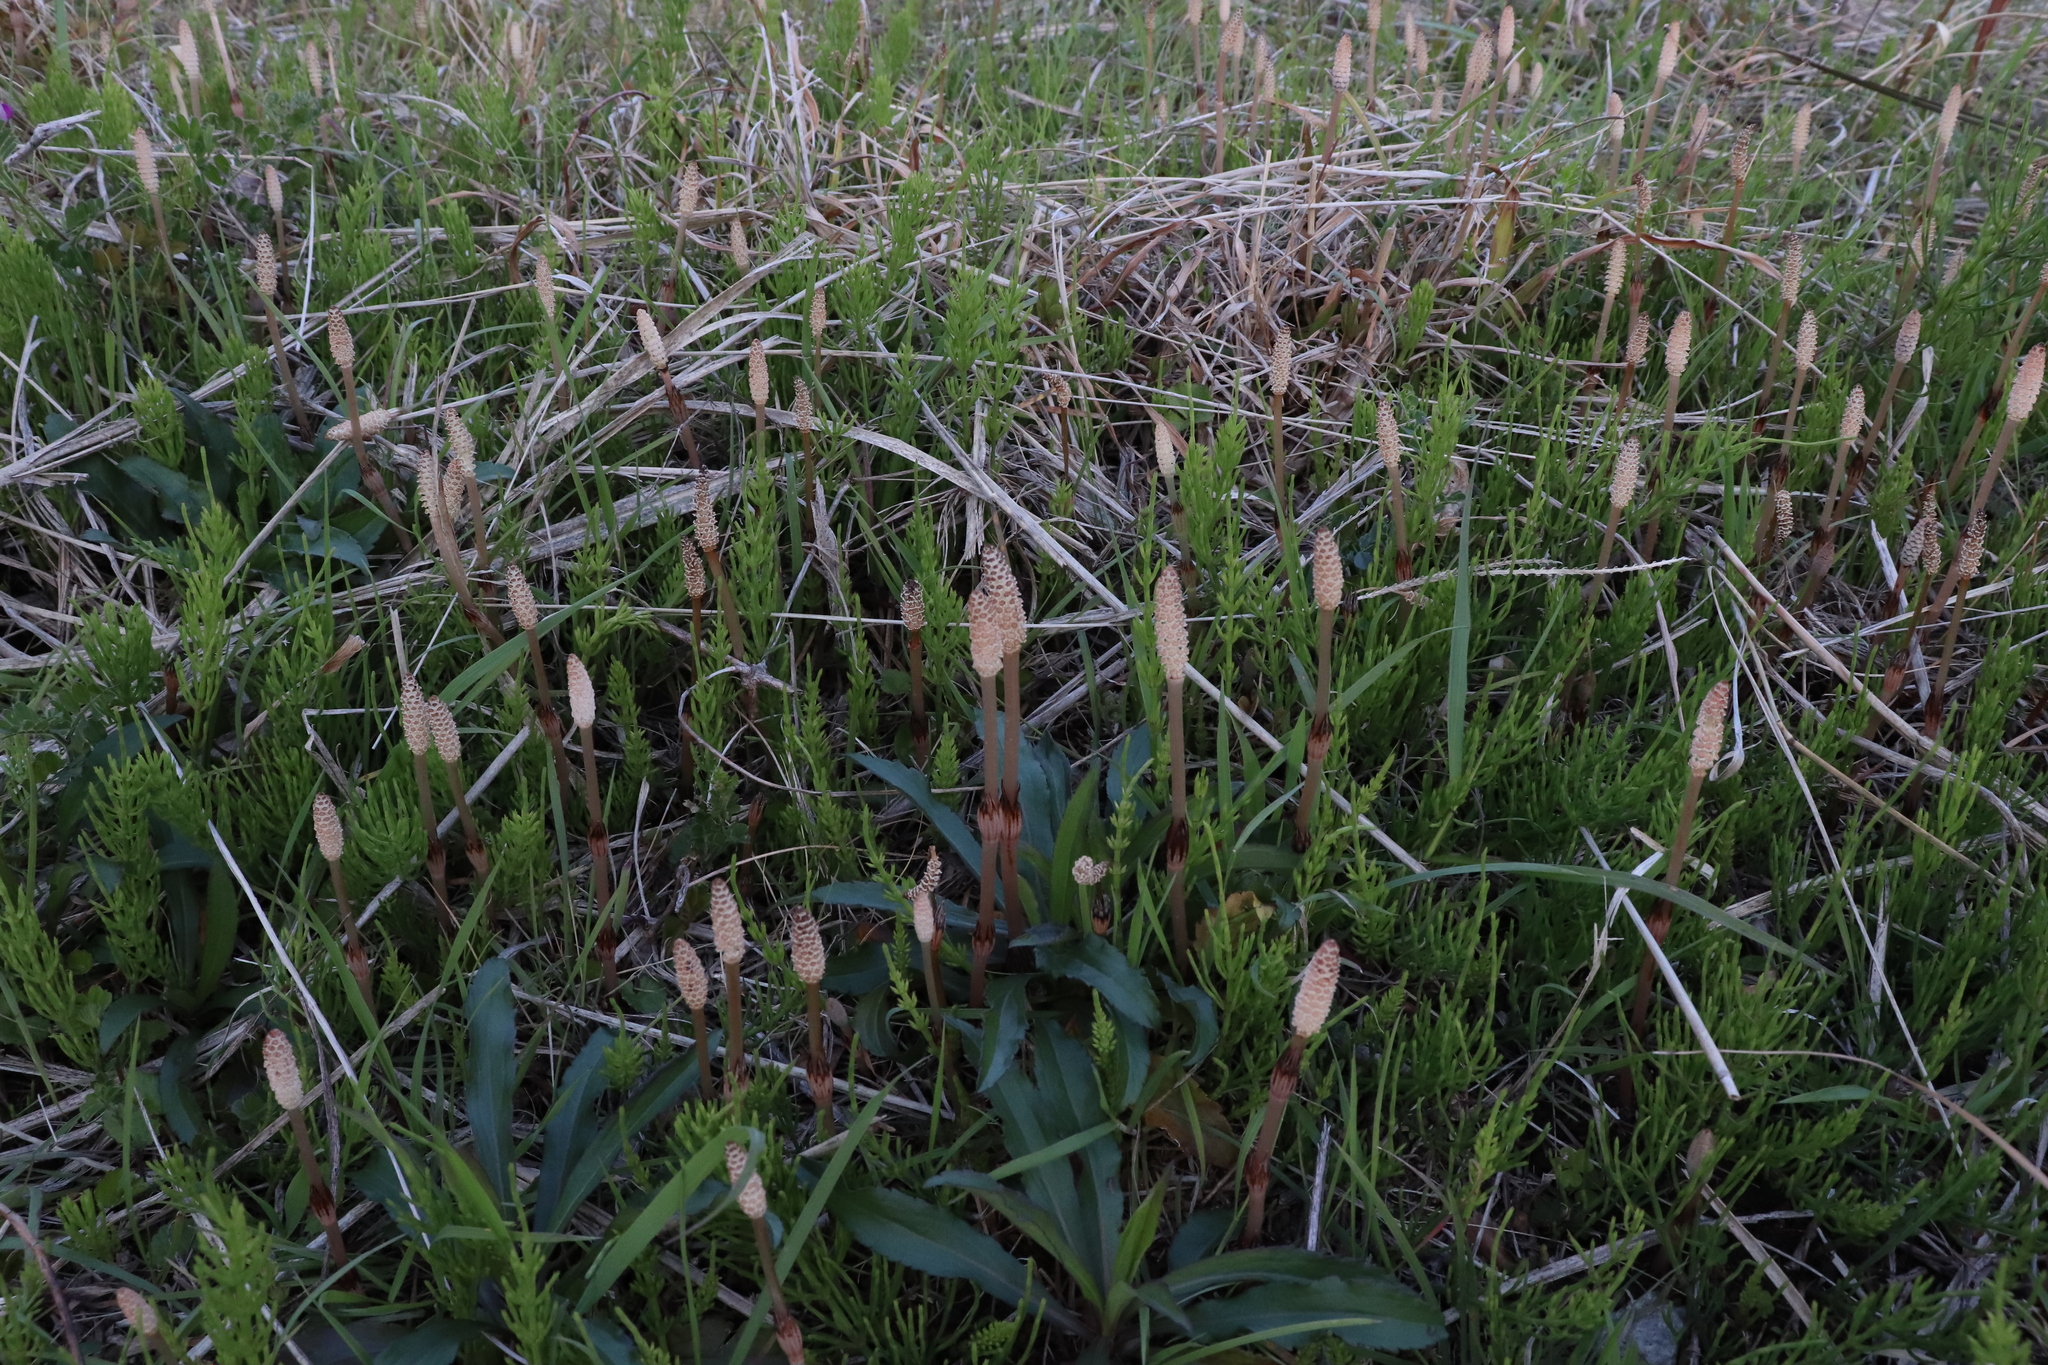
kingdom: Plantae
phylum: Tracheophyta
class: Polypodiopsida
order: Equisetales
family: Equisetaceae
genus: Equisetum
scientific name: Equisetum arvense
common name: Field horsetail
